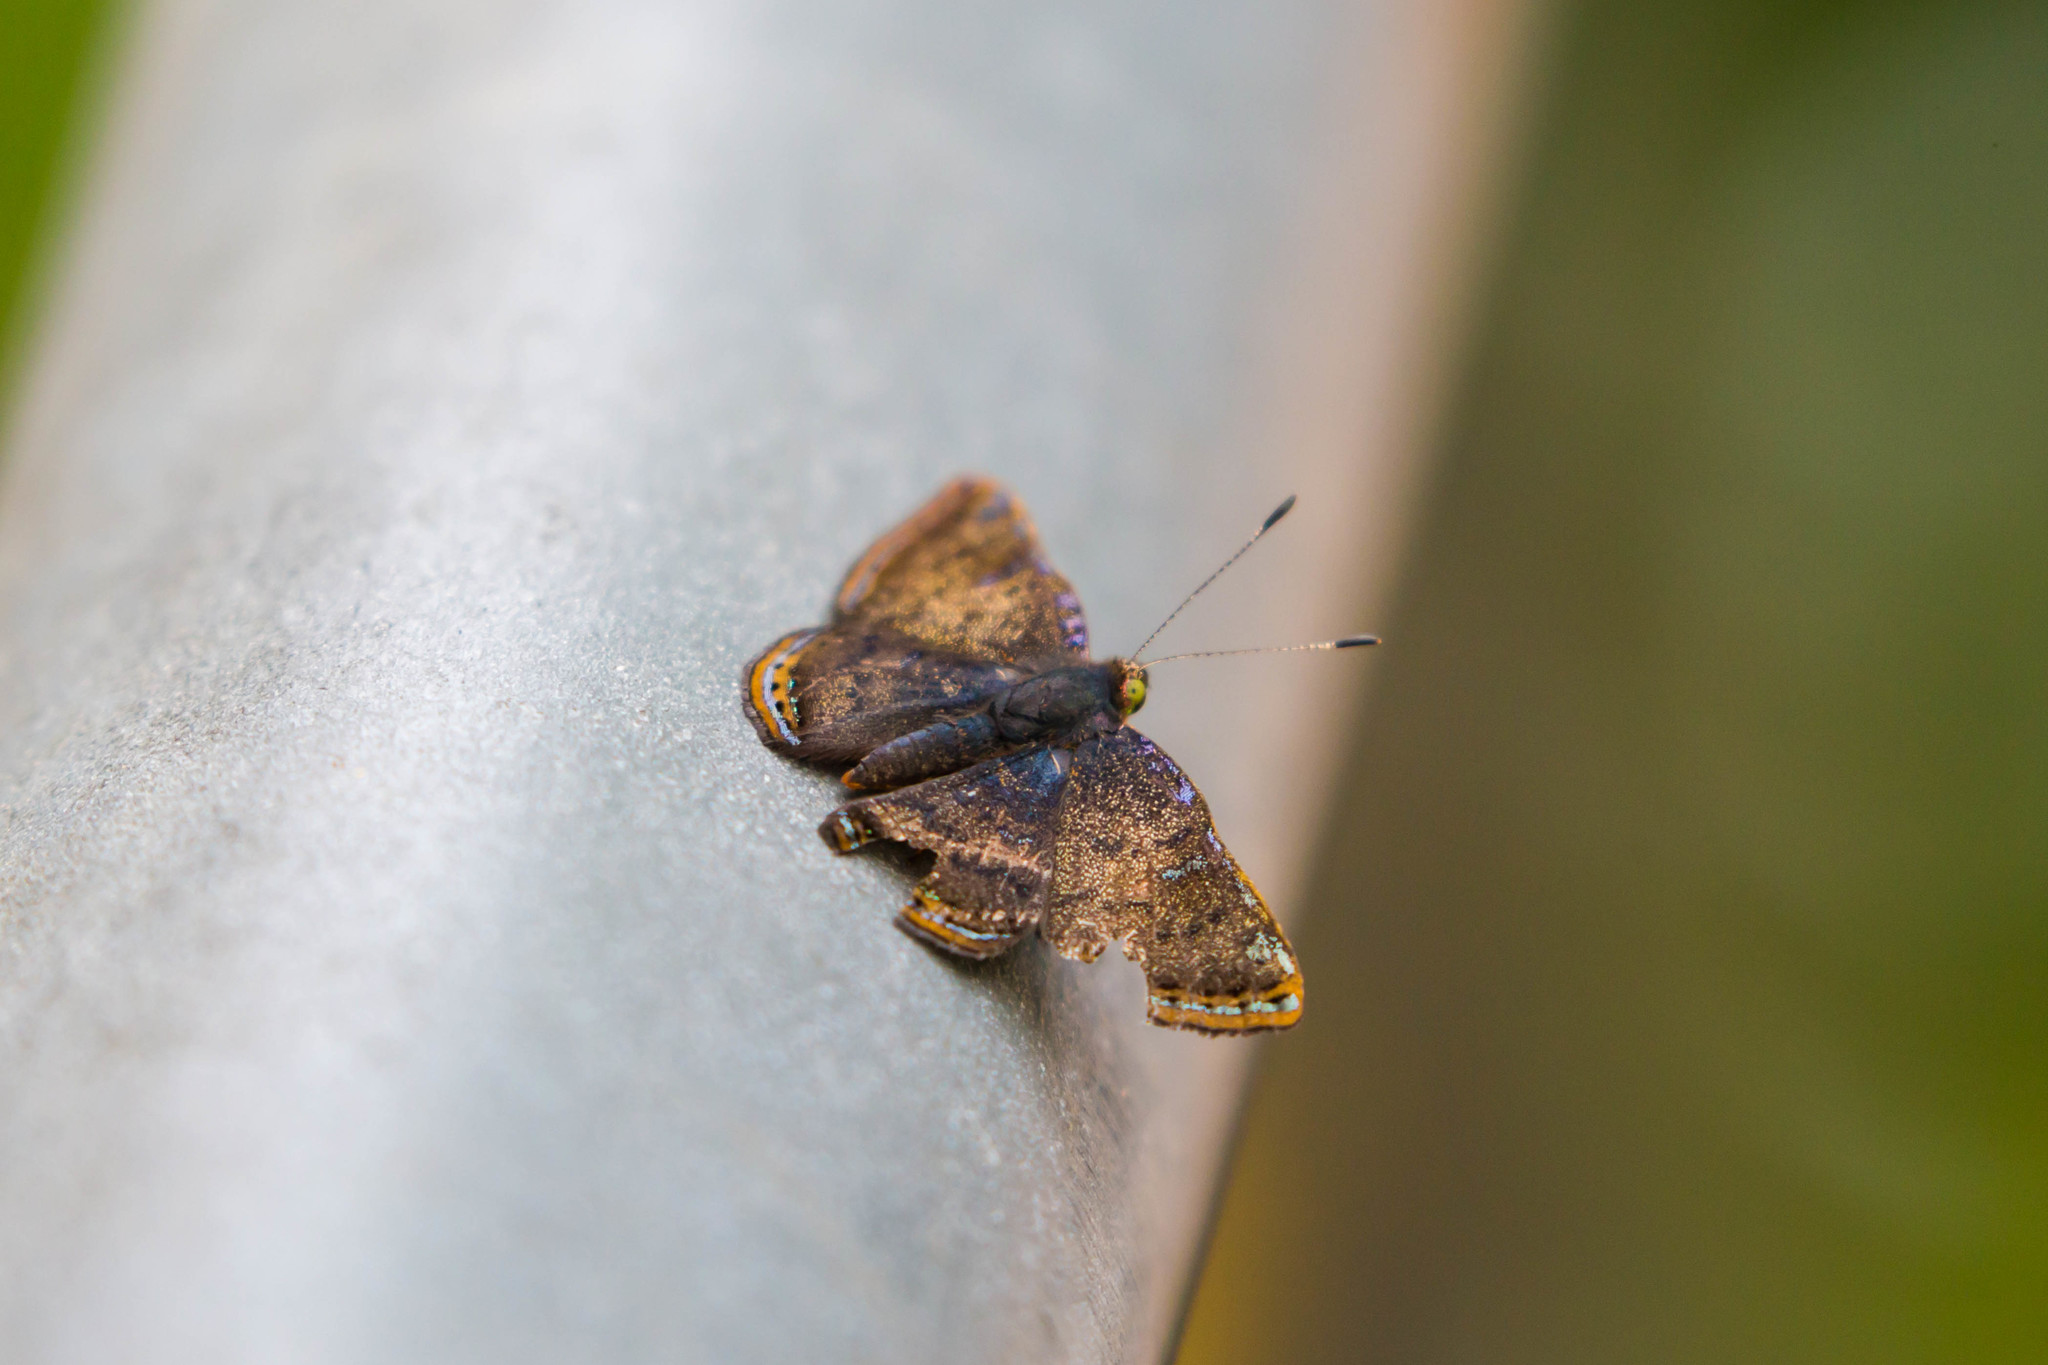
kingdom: Animalia
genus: Caria
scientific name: Caria ino
